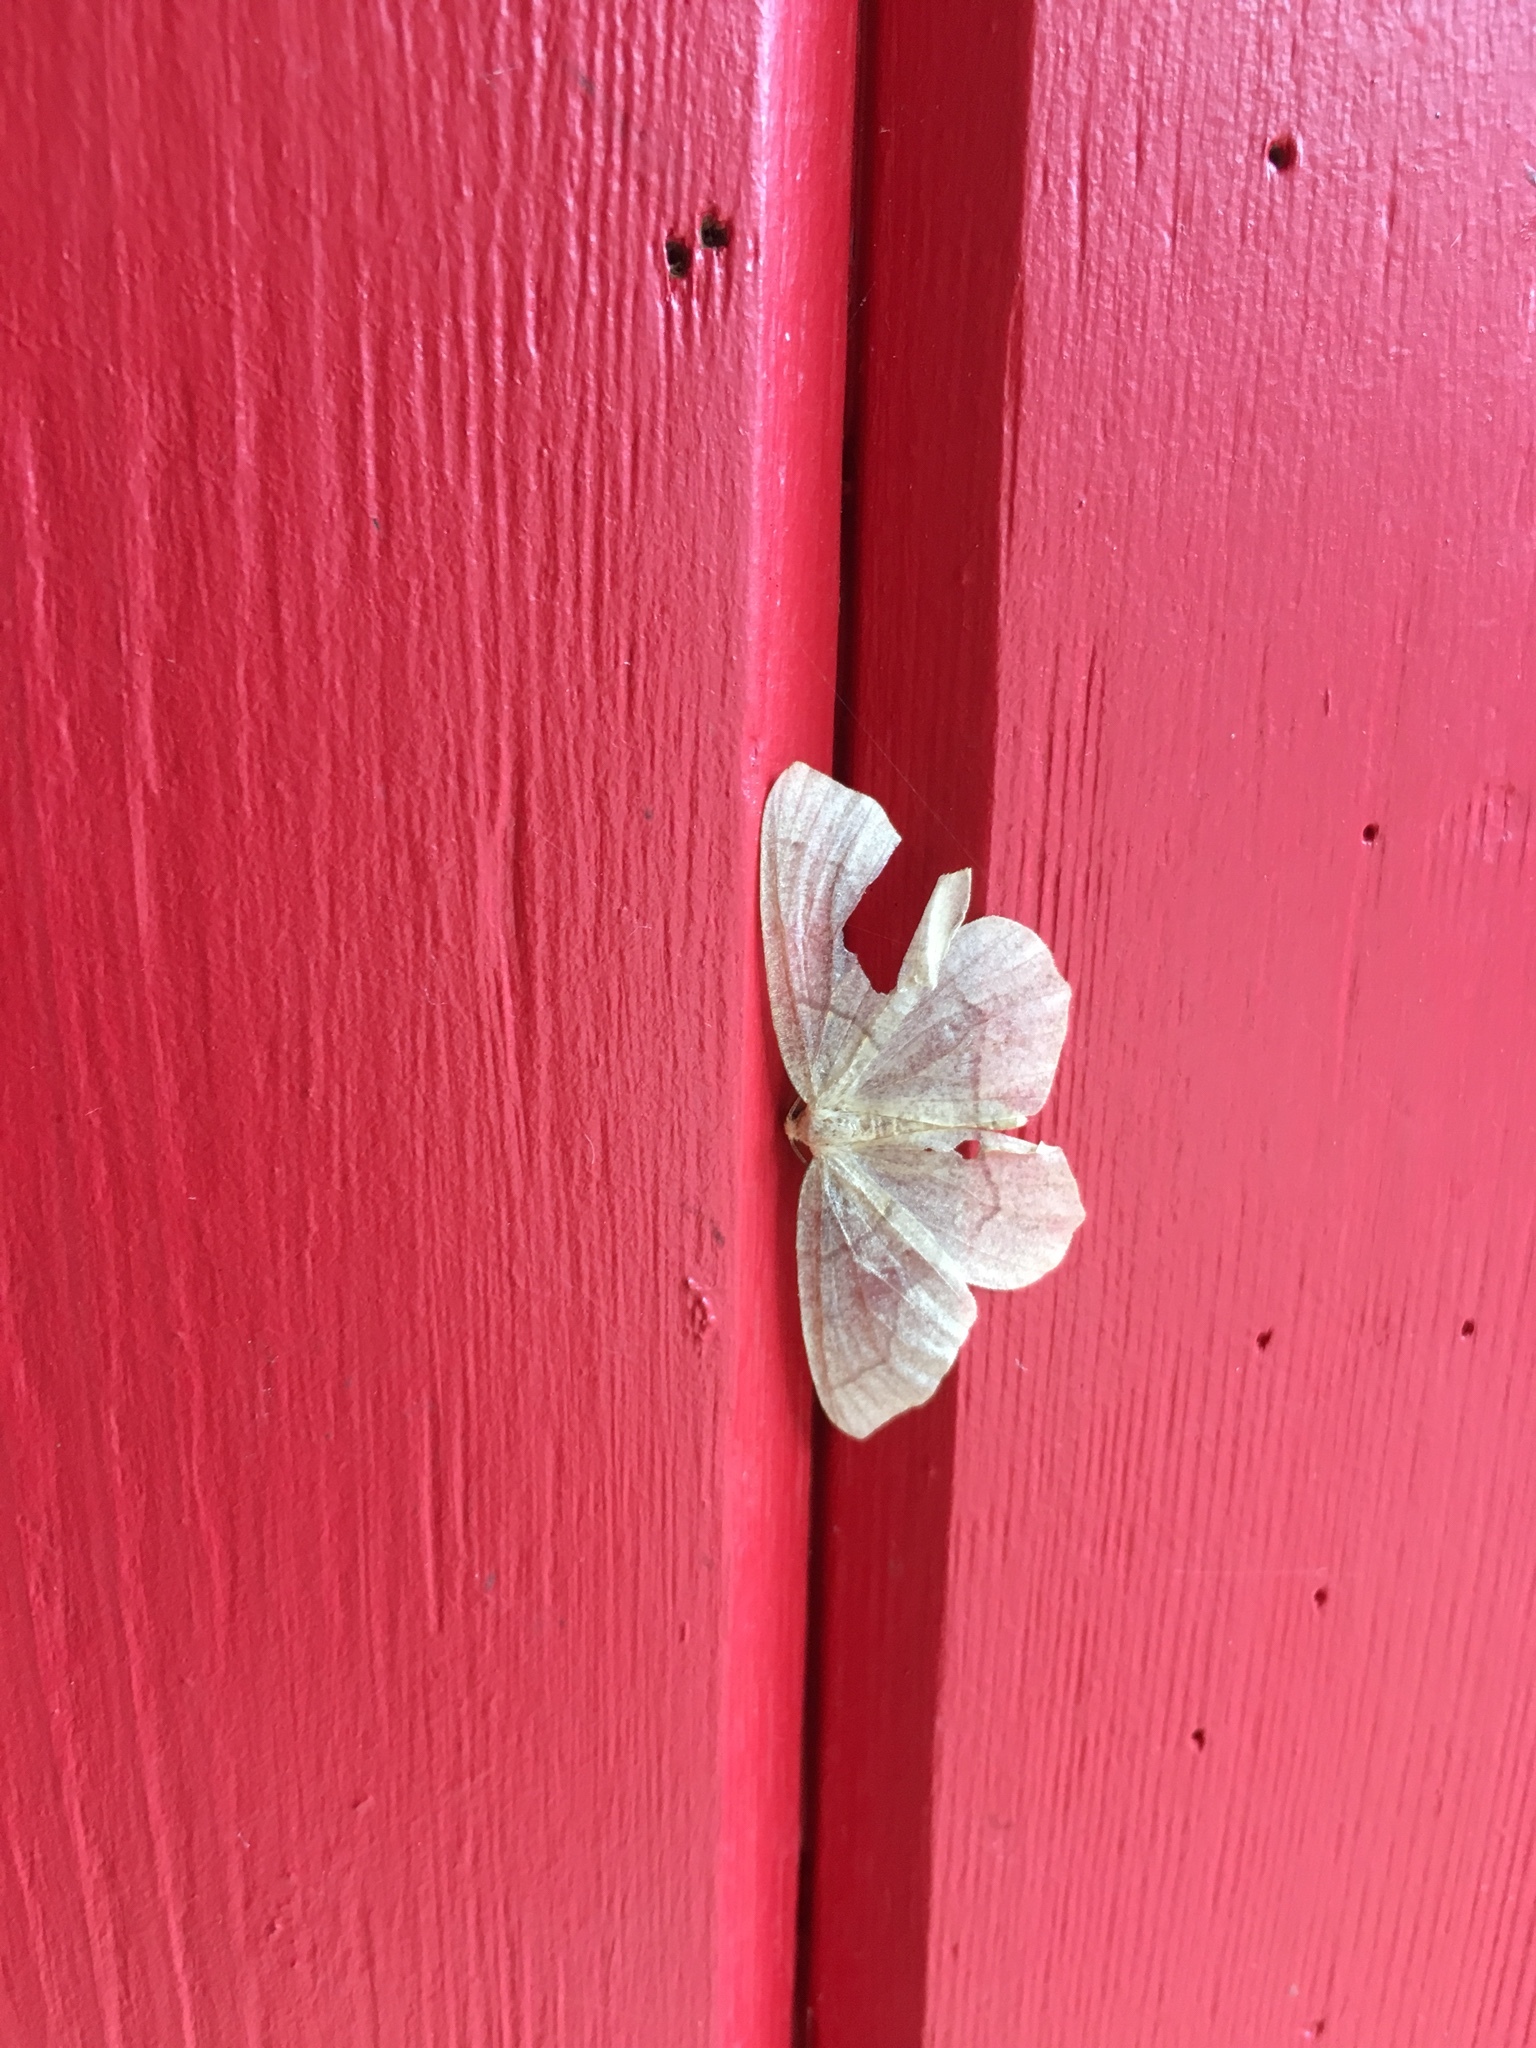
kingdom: Animalia
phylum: Arthropoda
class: Insecta
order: Lepidoptera
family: Geometridae
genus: Lambdina
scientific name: Lambdina fiscellaria
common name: Hemlock looper
